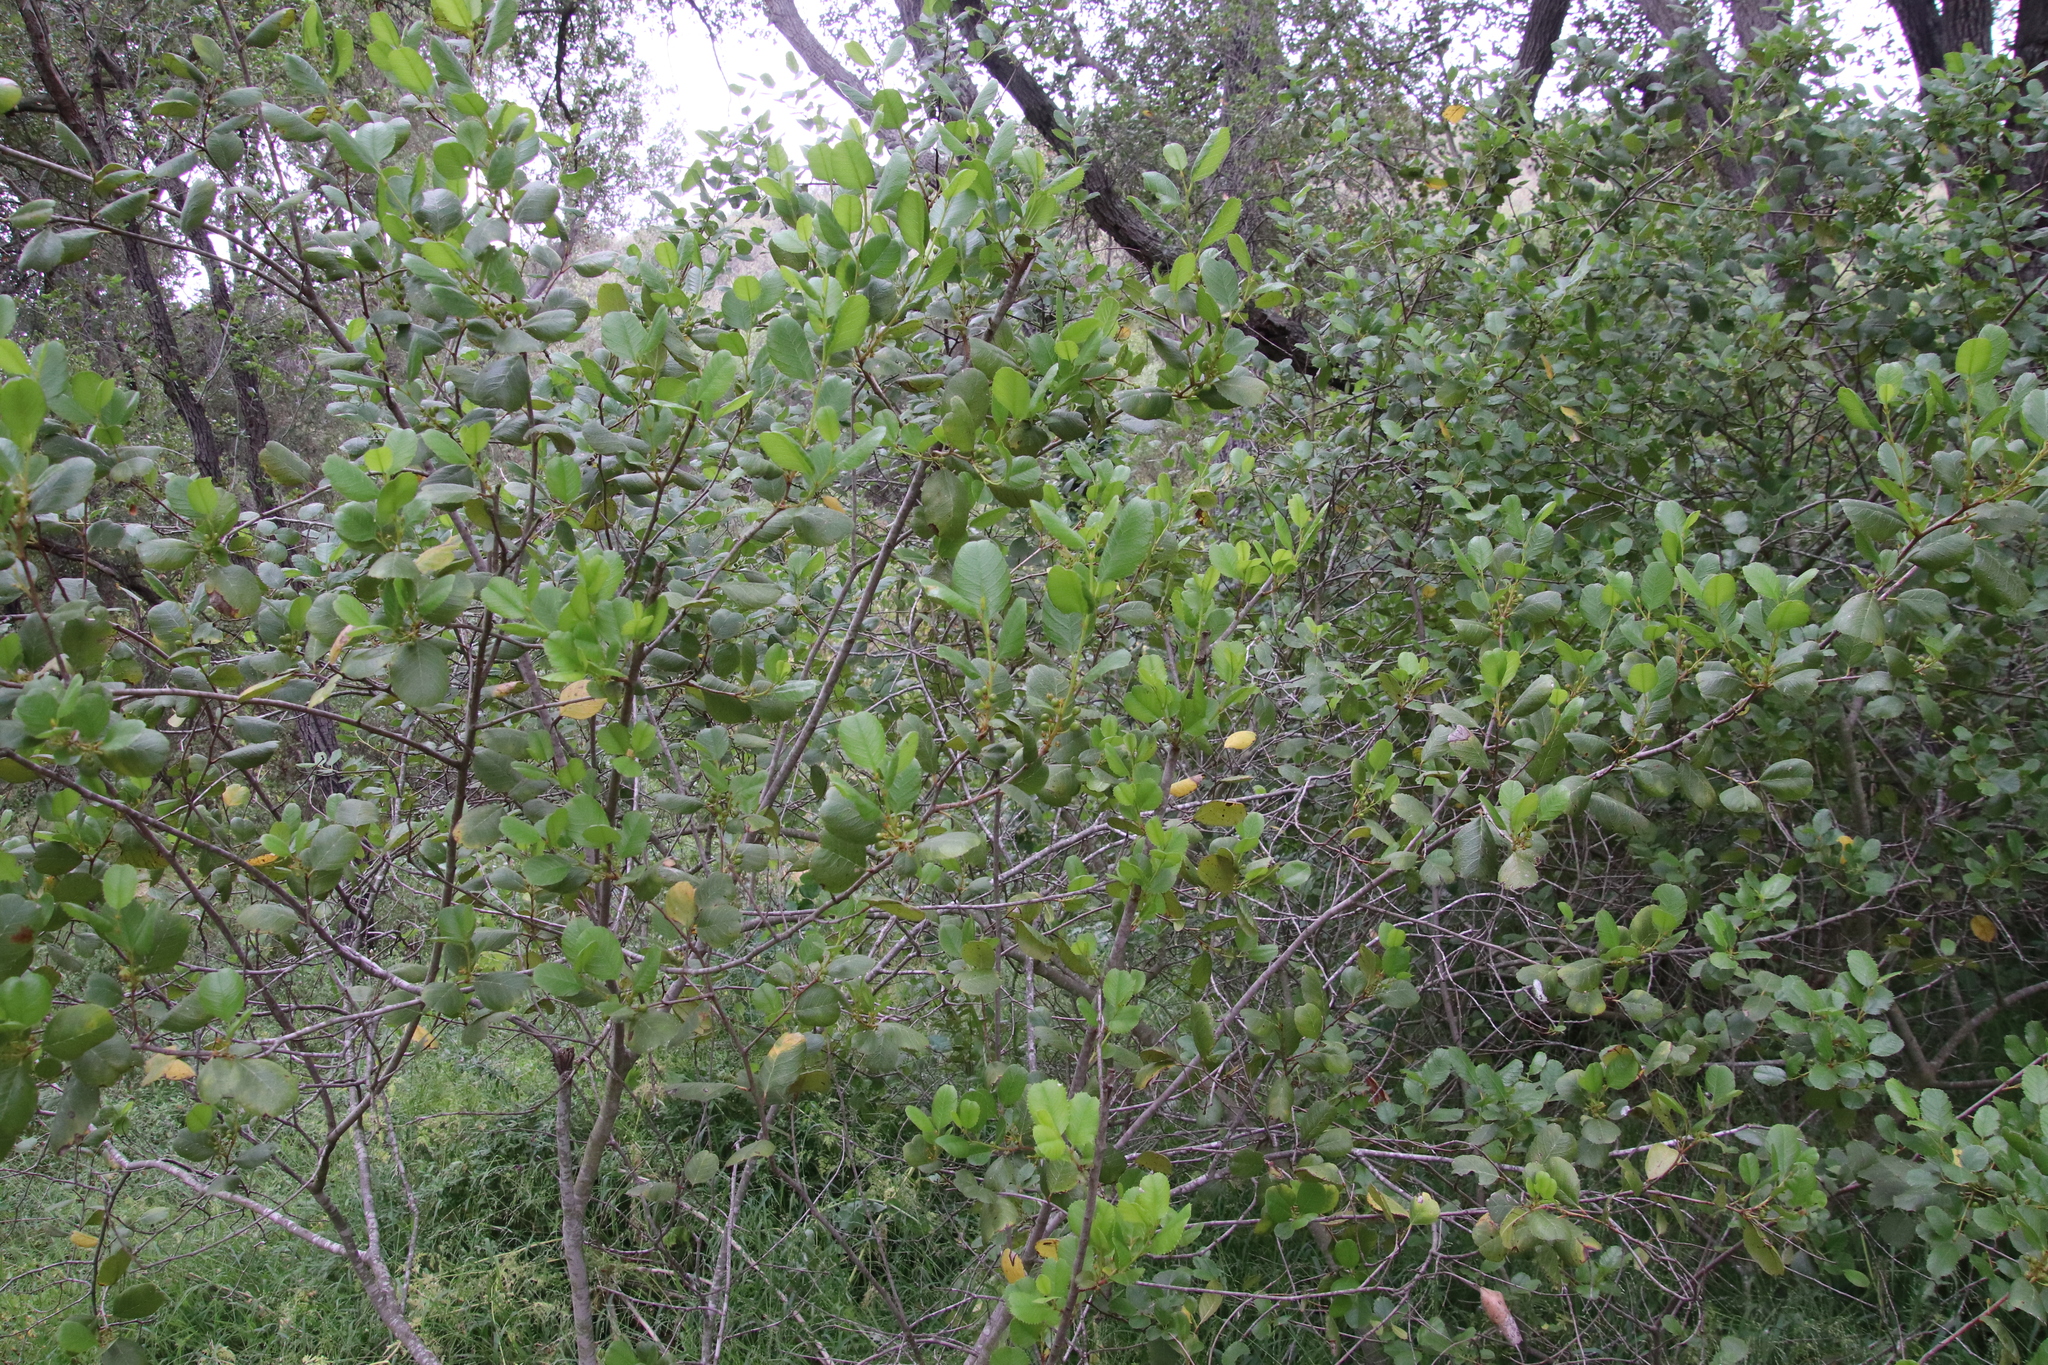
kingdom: Plantae
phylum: Tracheophyta
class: Magnoliopsida
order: Rosales
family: Rhamnaceae
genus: Endotropis
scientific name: Endotropis crocea
